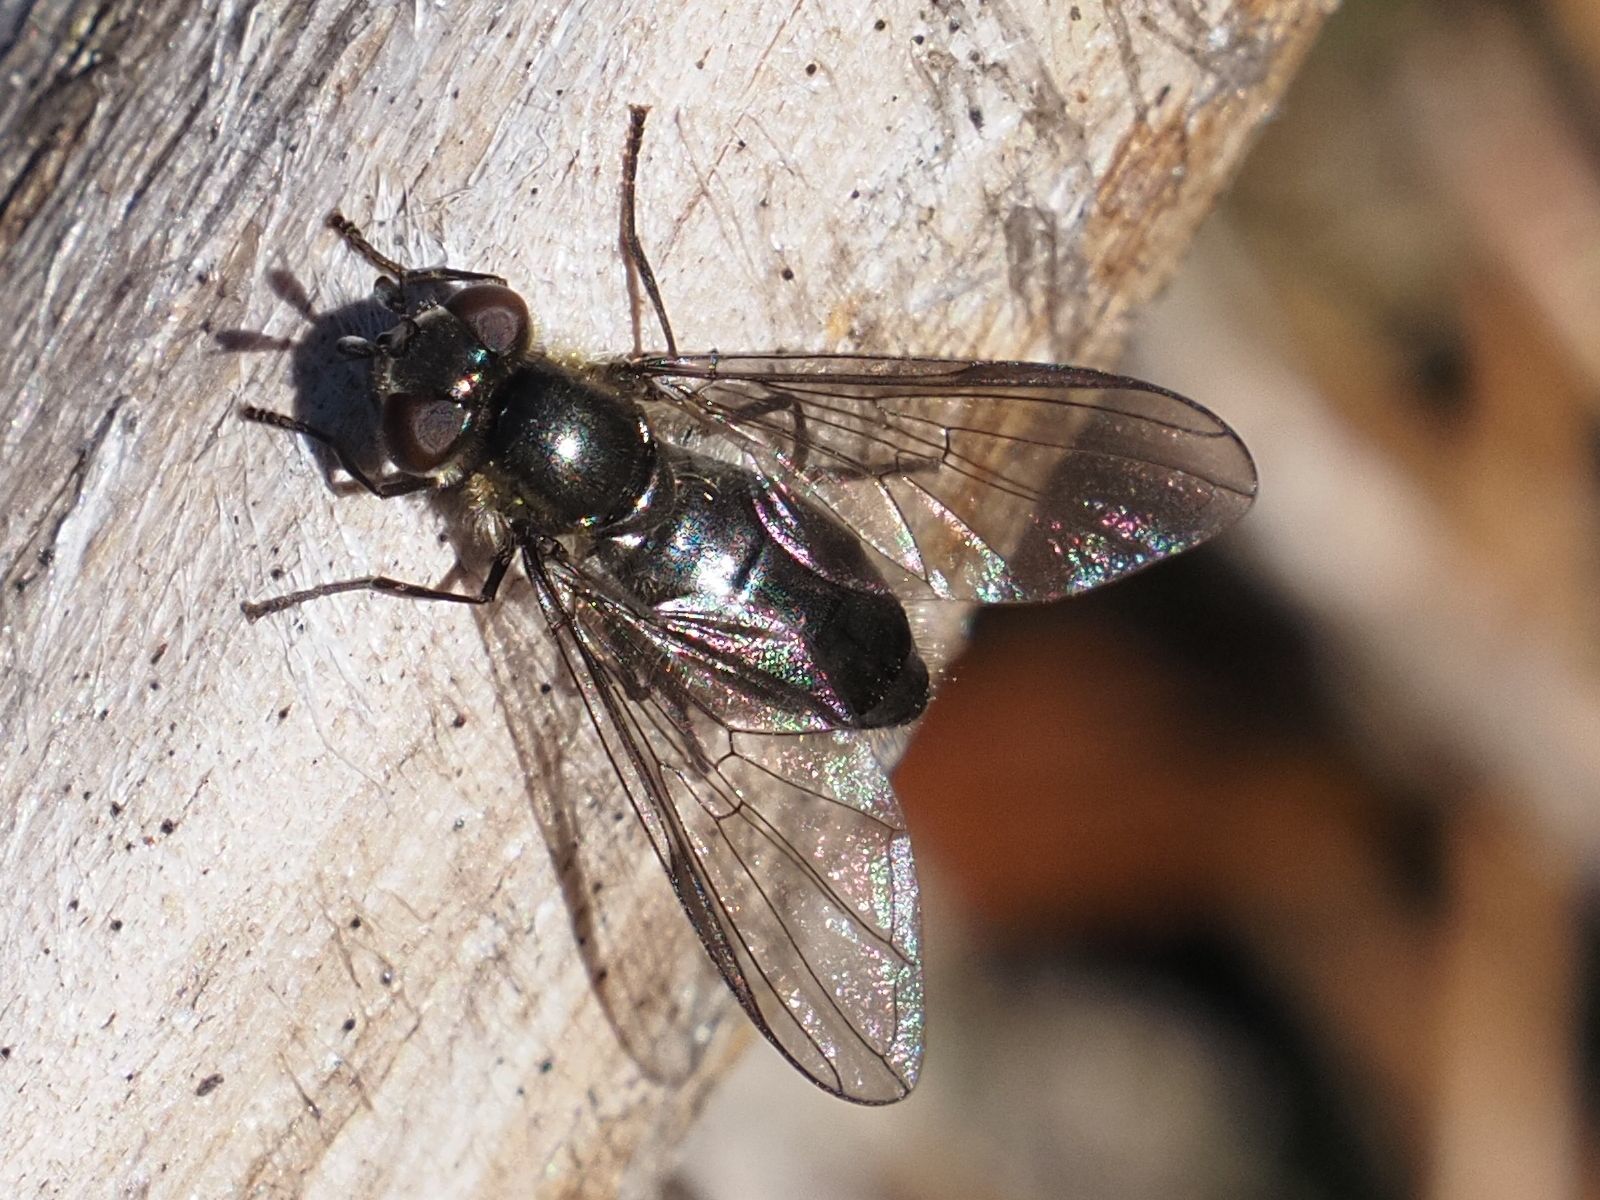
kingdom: Animalia
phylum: Arthropoda
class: Insecta
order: Diptera
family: Syrphidae
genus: Melangyna
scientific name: Melangyna quadrimaculata
